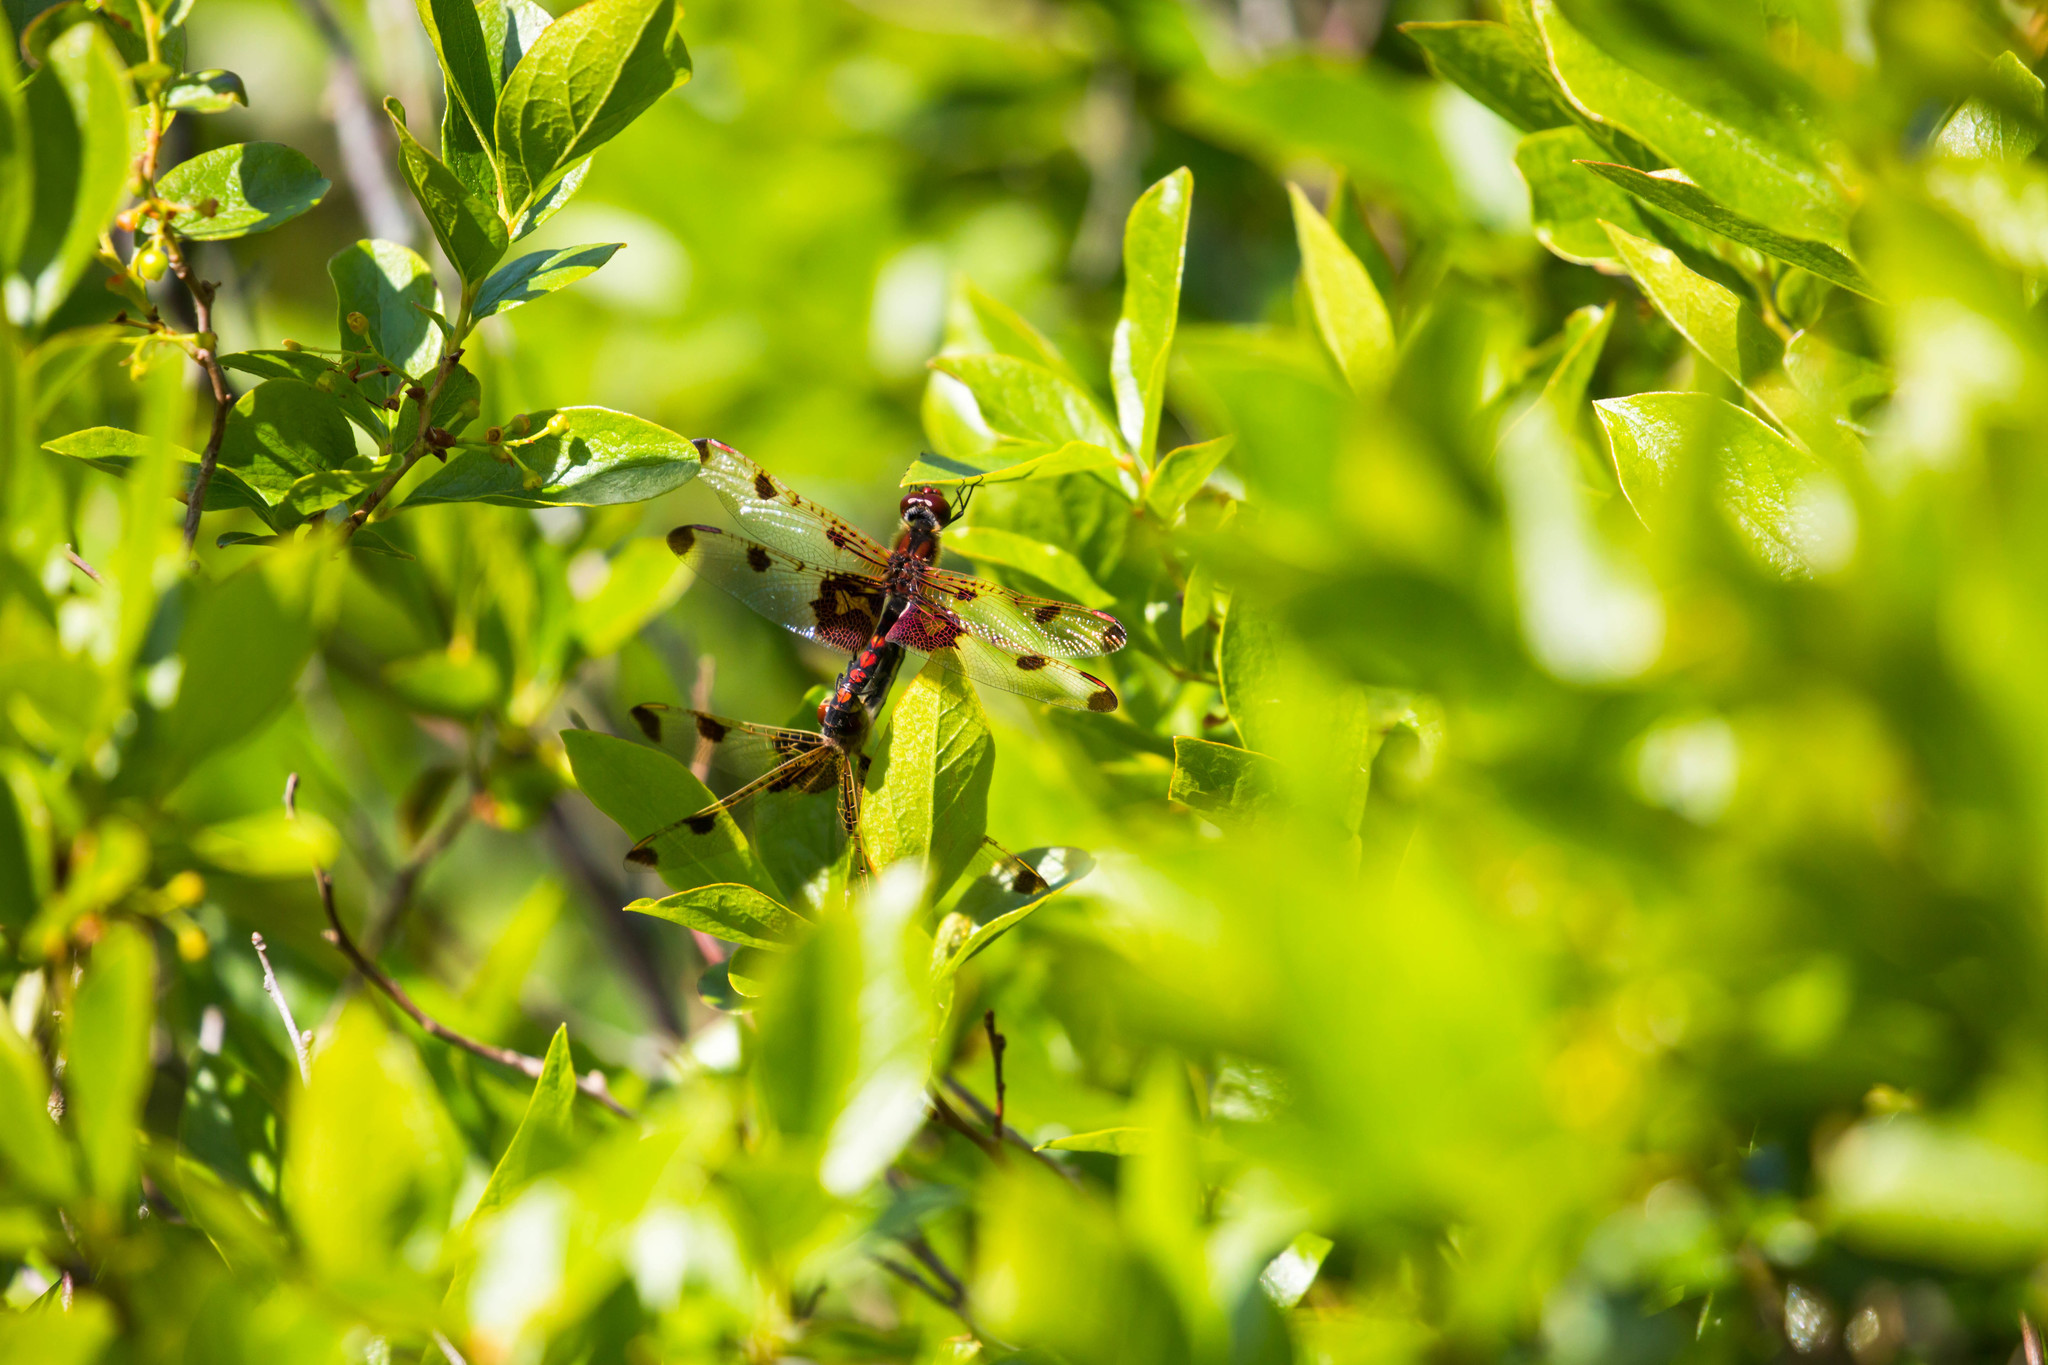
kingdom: Animalia
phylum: Arthropoda
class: Insecta
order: Odonata
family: Libellulidae
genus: Celithemis
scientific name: Celithemis elisa
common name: Calico pennant
